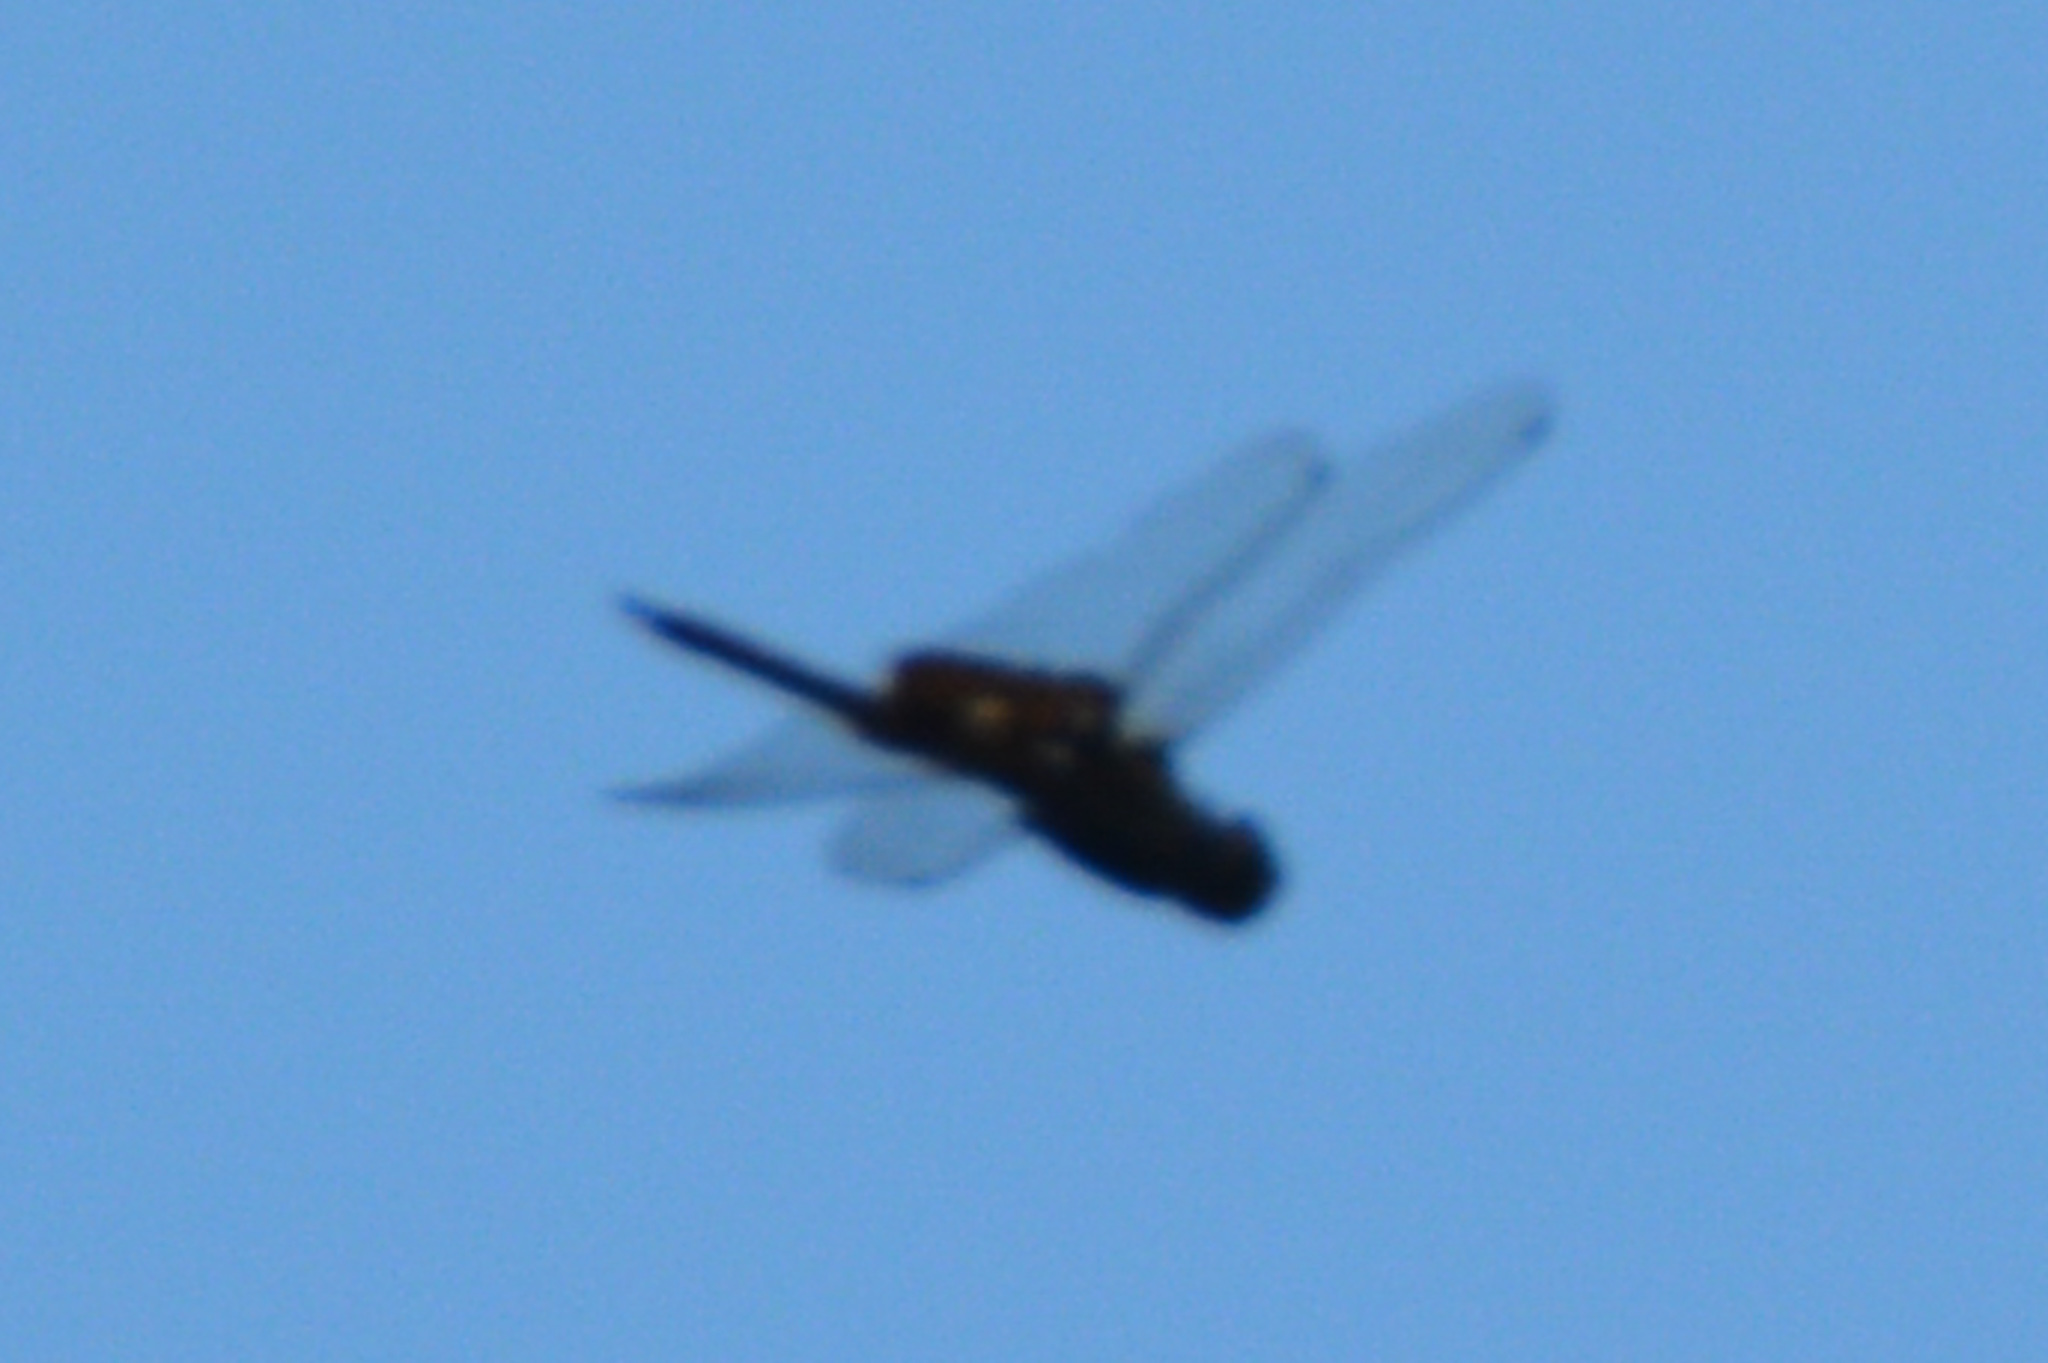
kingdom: Animalia
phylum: Arthropoda
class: Insecta
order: Odonata
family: Libellulidae
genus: Tramea
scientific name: Tramea lacerata
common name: Black saddlebags
